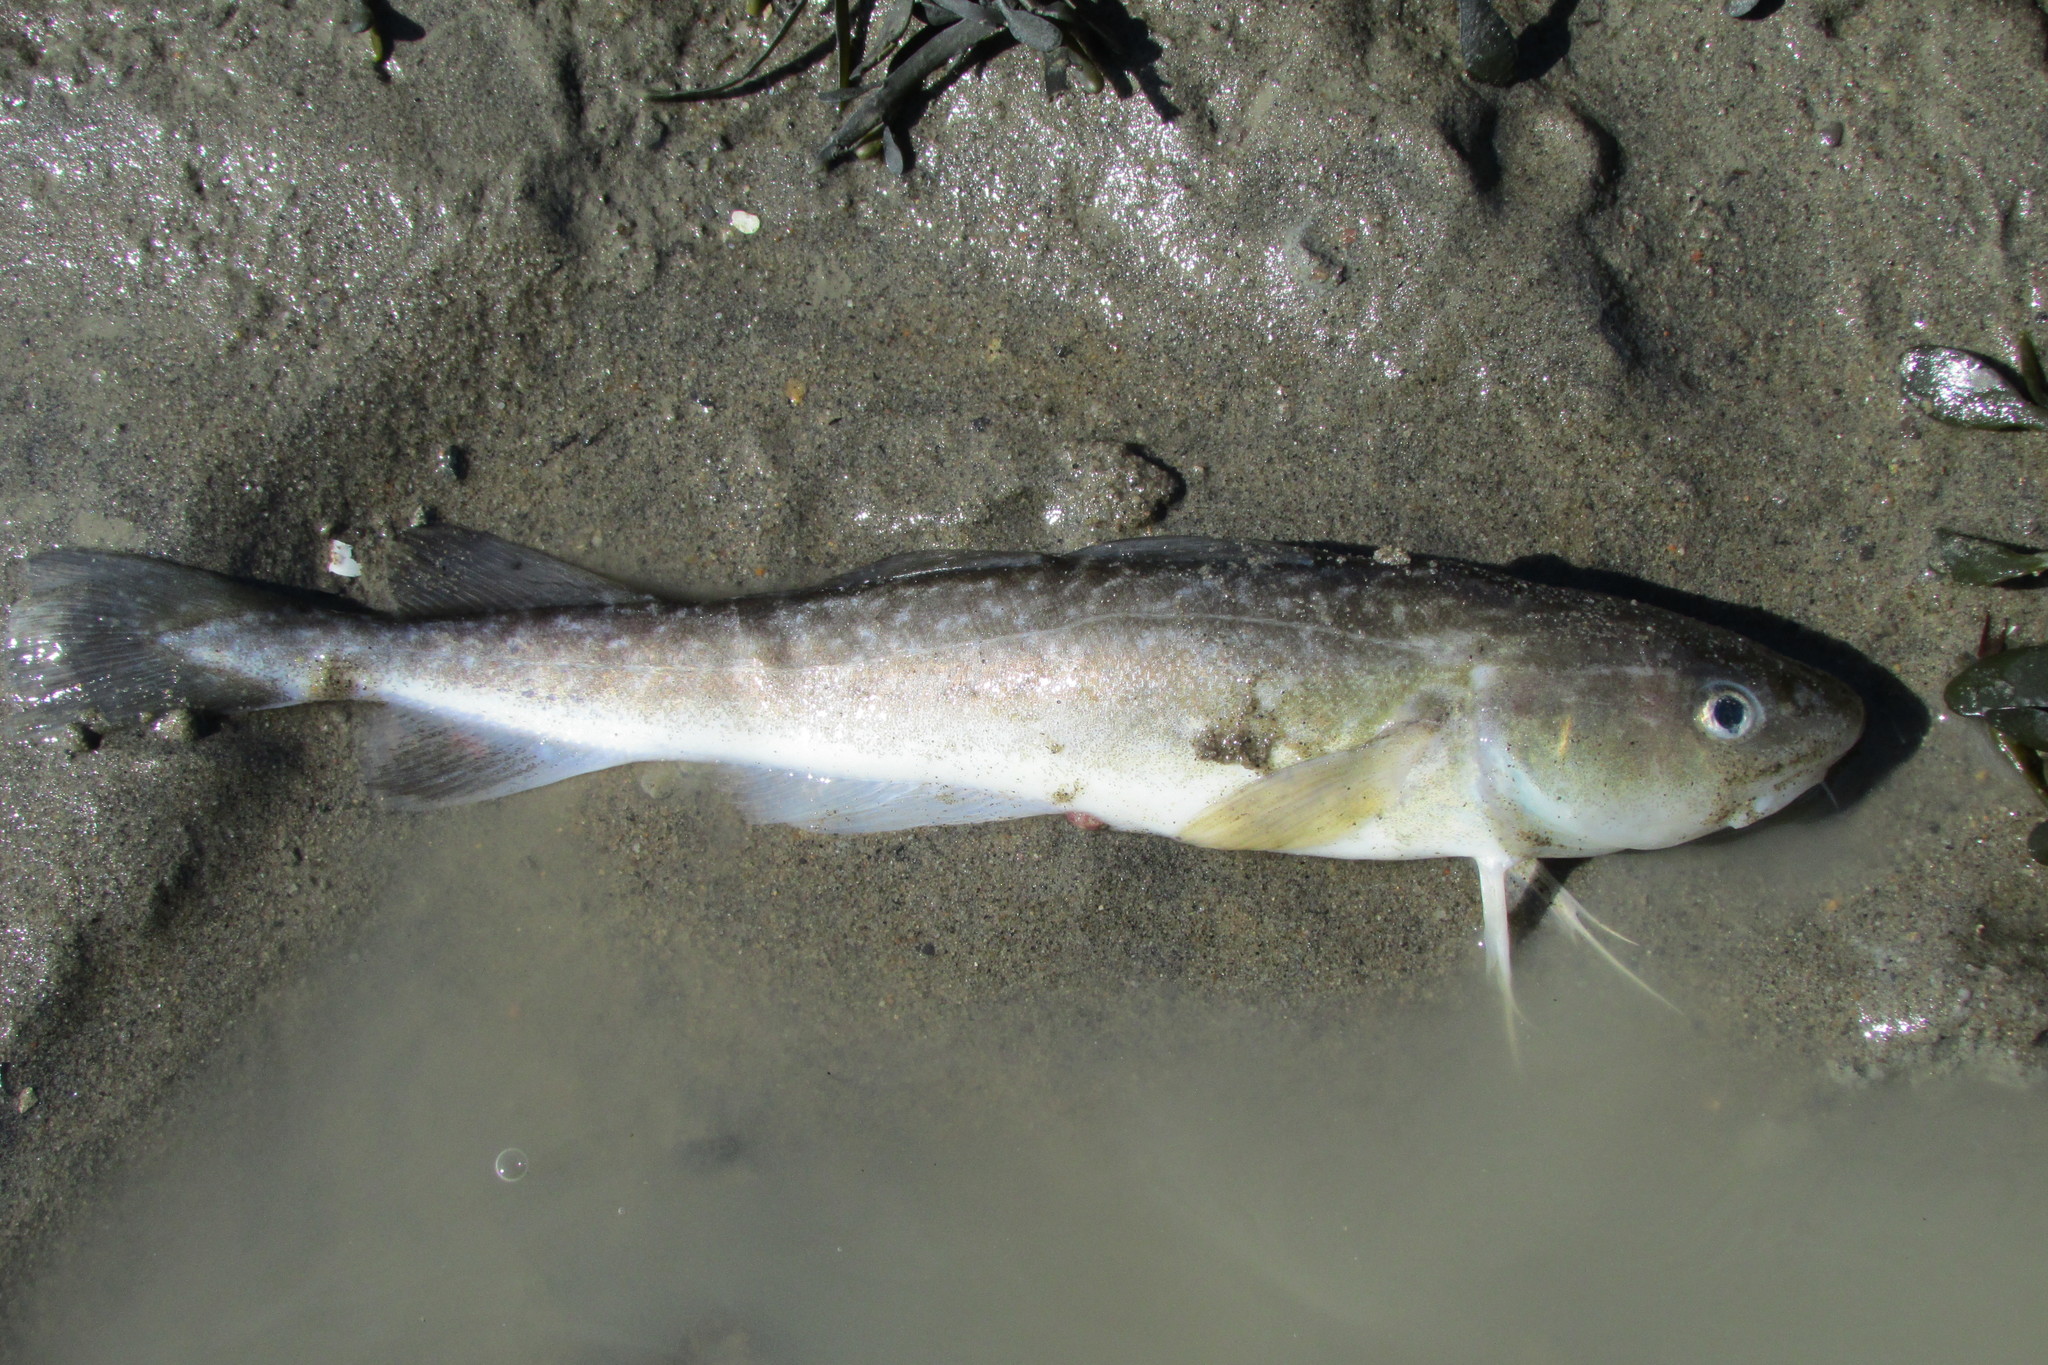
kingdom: Animalia
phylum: Chordata
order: Gadiformes
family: Gadidae
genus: Microgadus
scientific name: Microgadus tomcod
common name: Atlantic tomcod
